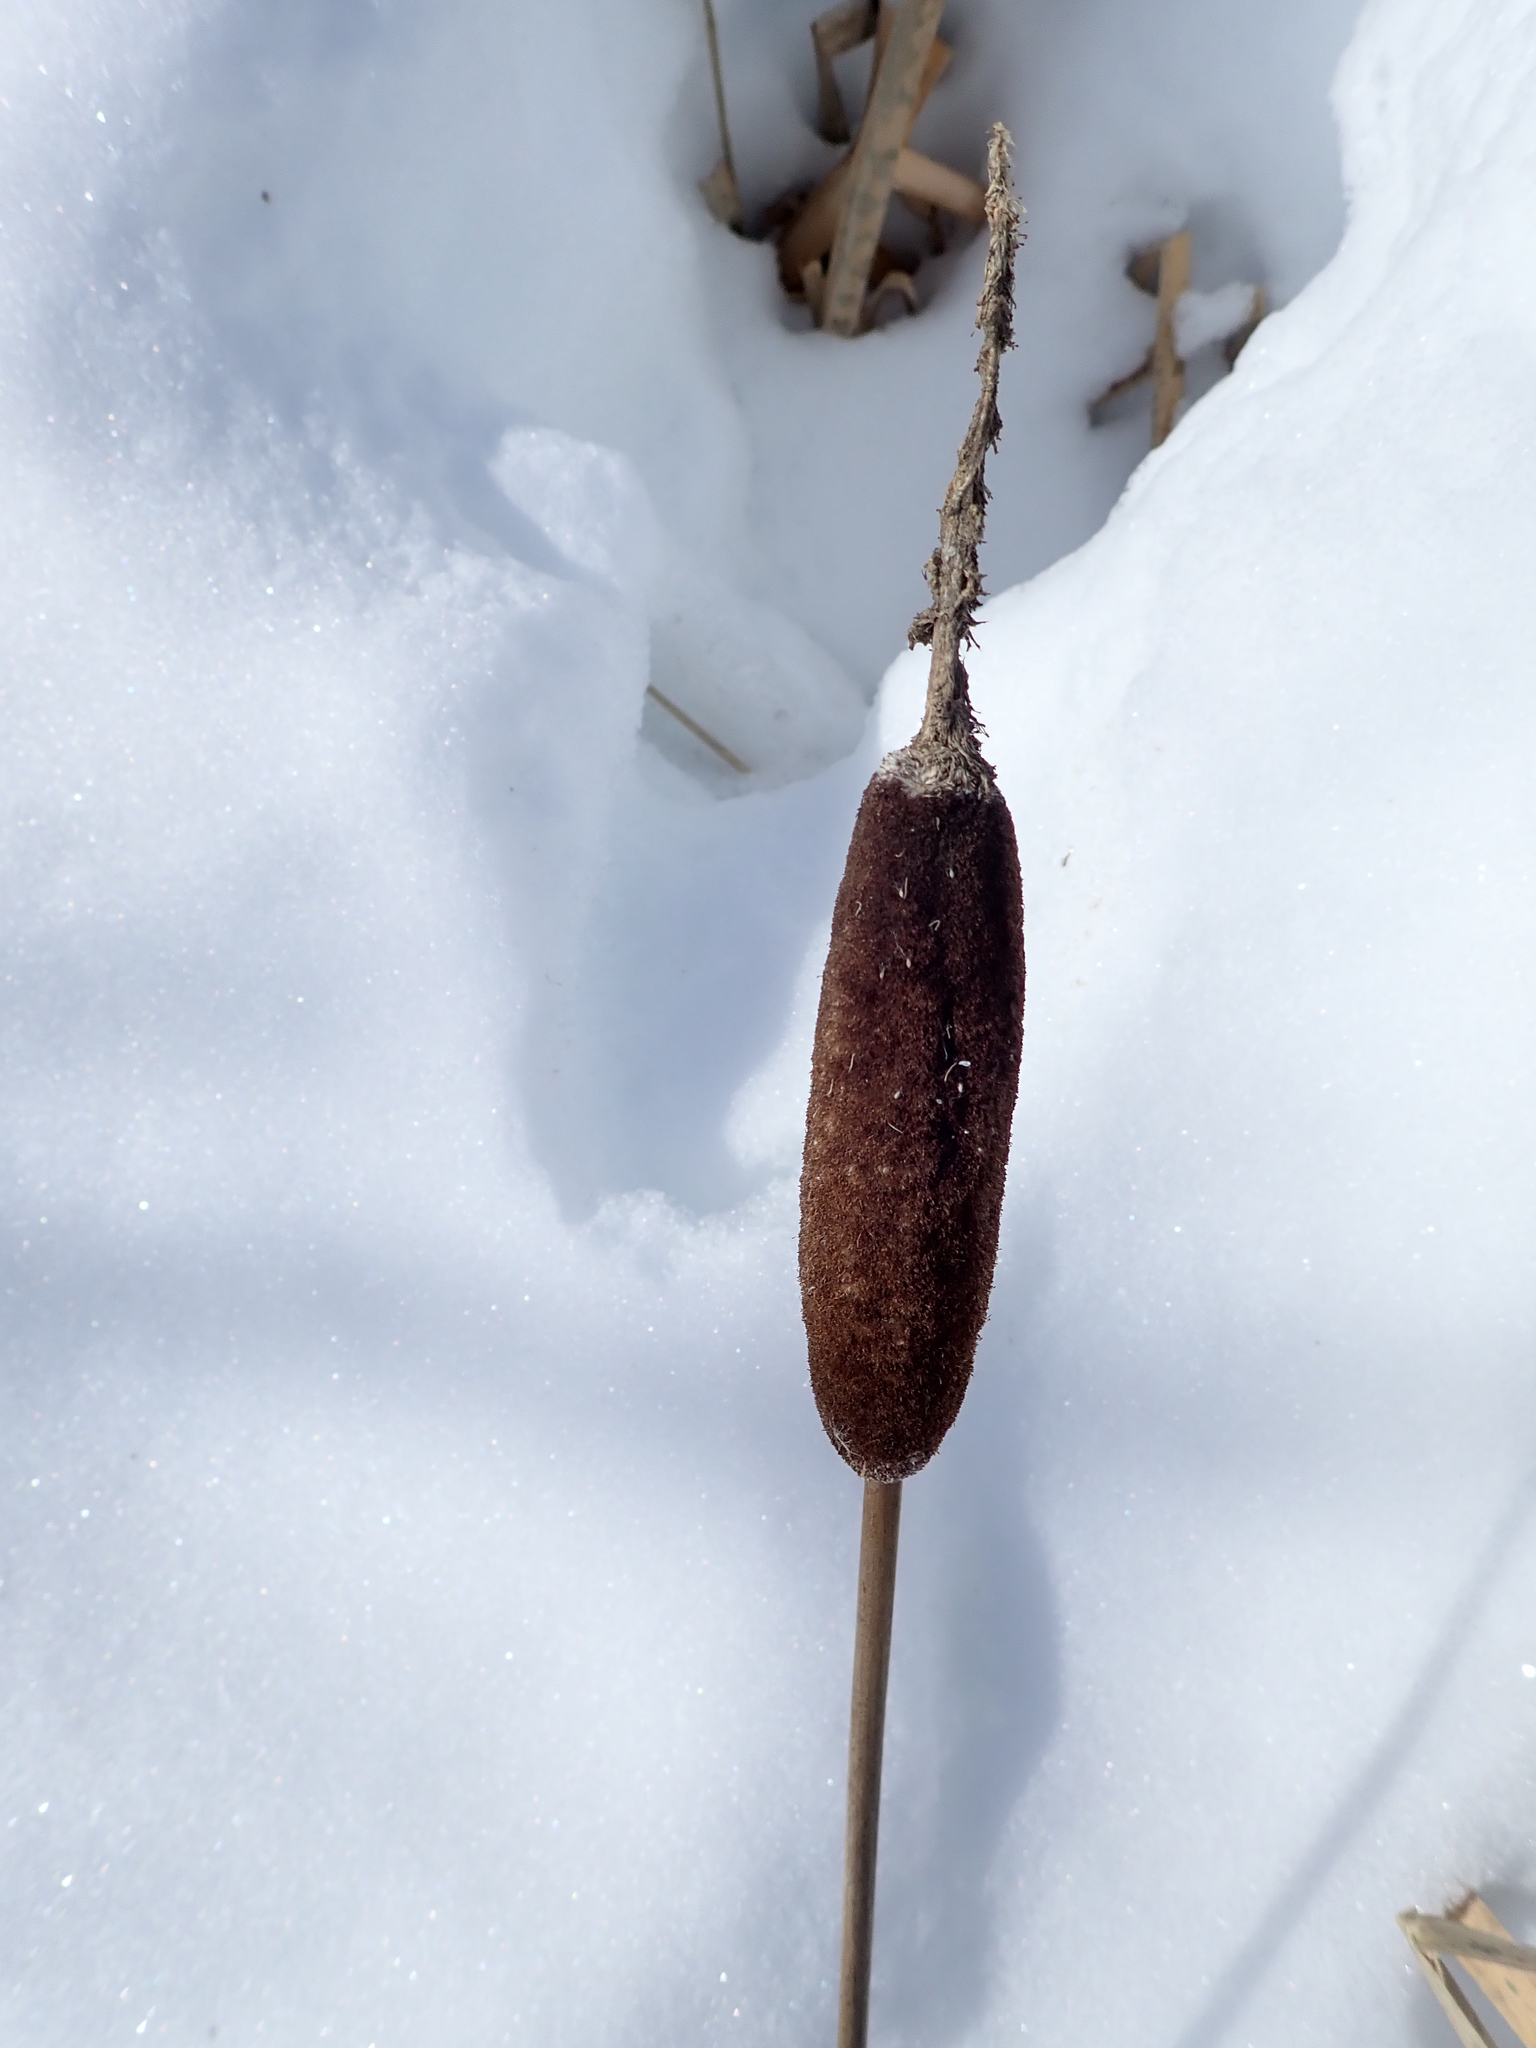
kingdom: Plantae
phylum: Tracheophyta
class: Liliopsida
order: Poales
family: Typhaceae
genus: Typha
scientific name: Typha latifolia
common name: Broadleaf cattail
